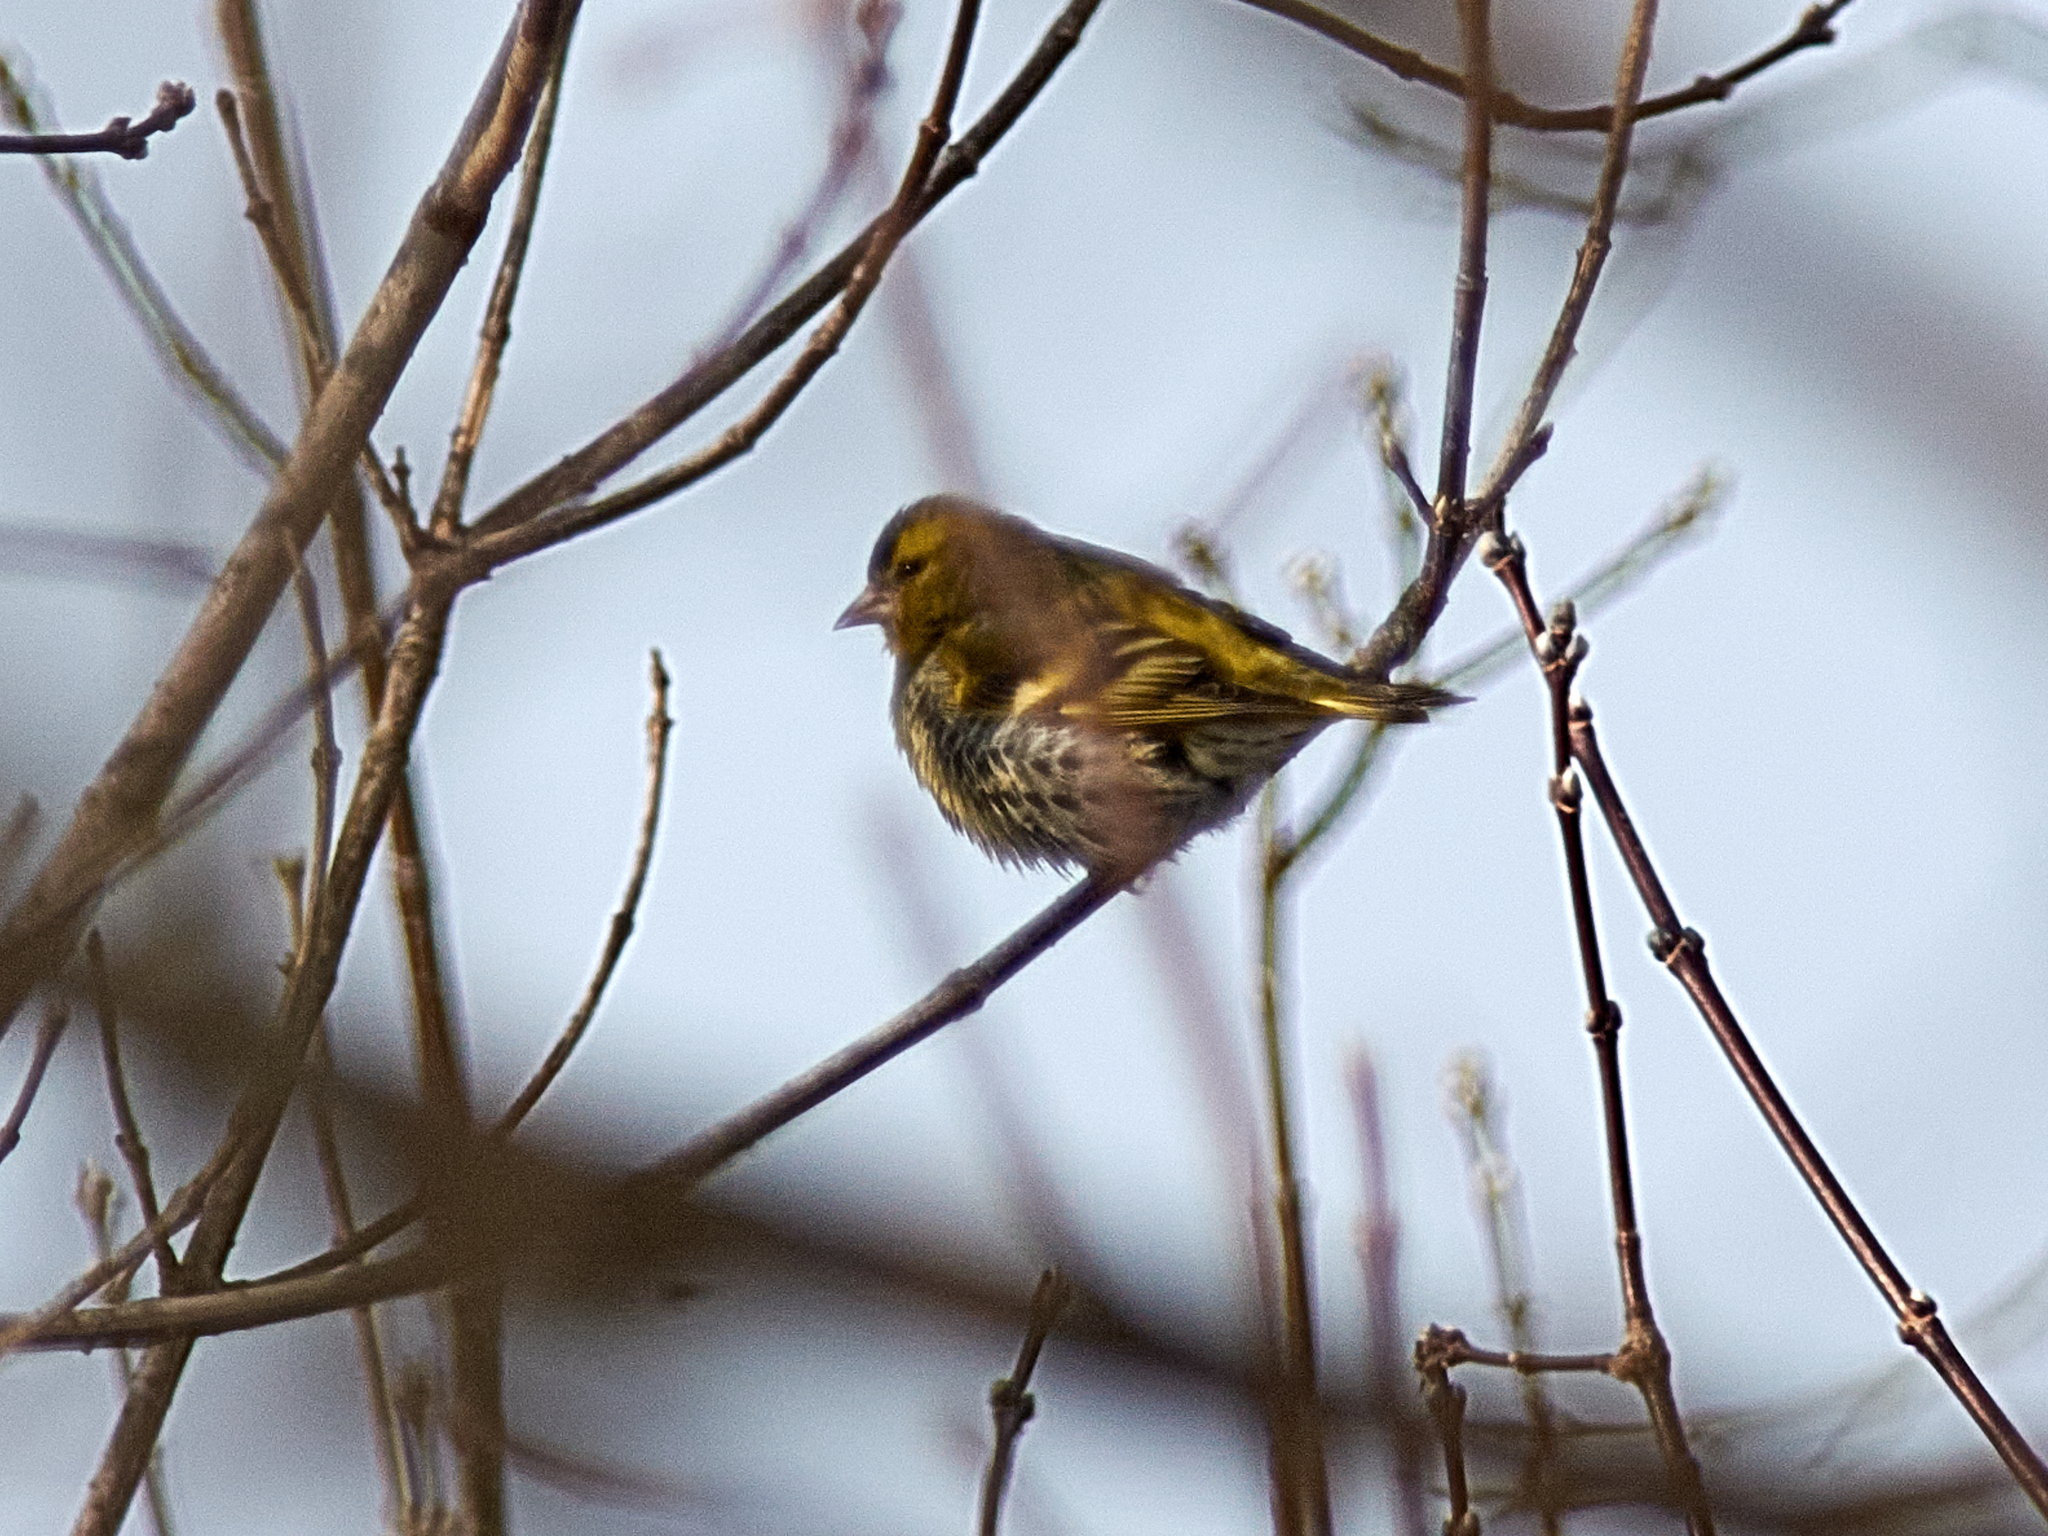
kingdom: Animalia
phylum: Chordata
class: Aves
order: Passeriformes
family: Fringillidae
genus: Spinus
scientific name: Spinus spinus
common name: Eurasian siskin
